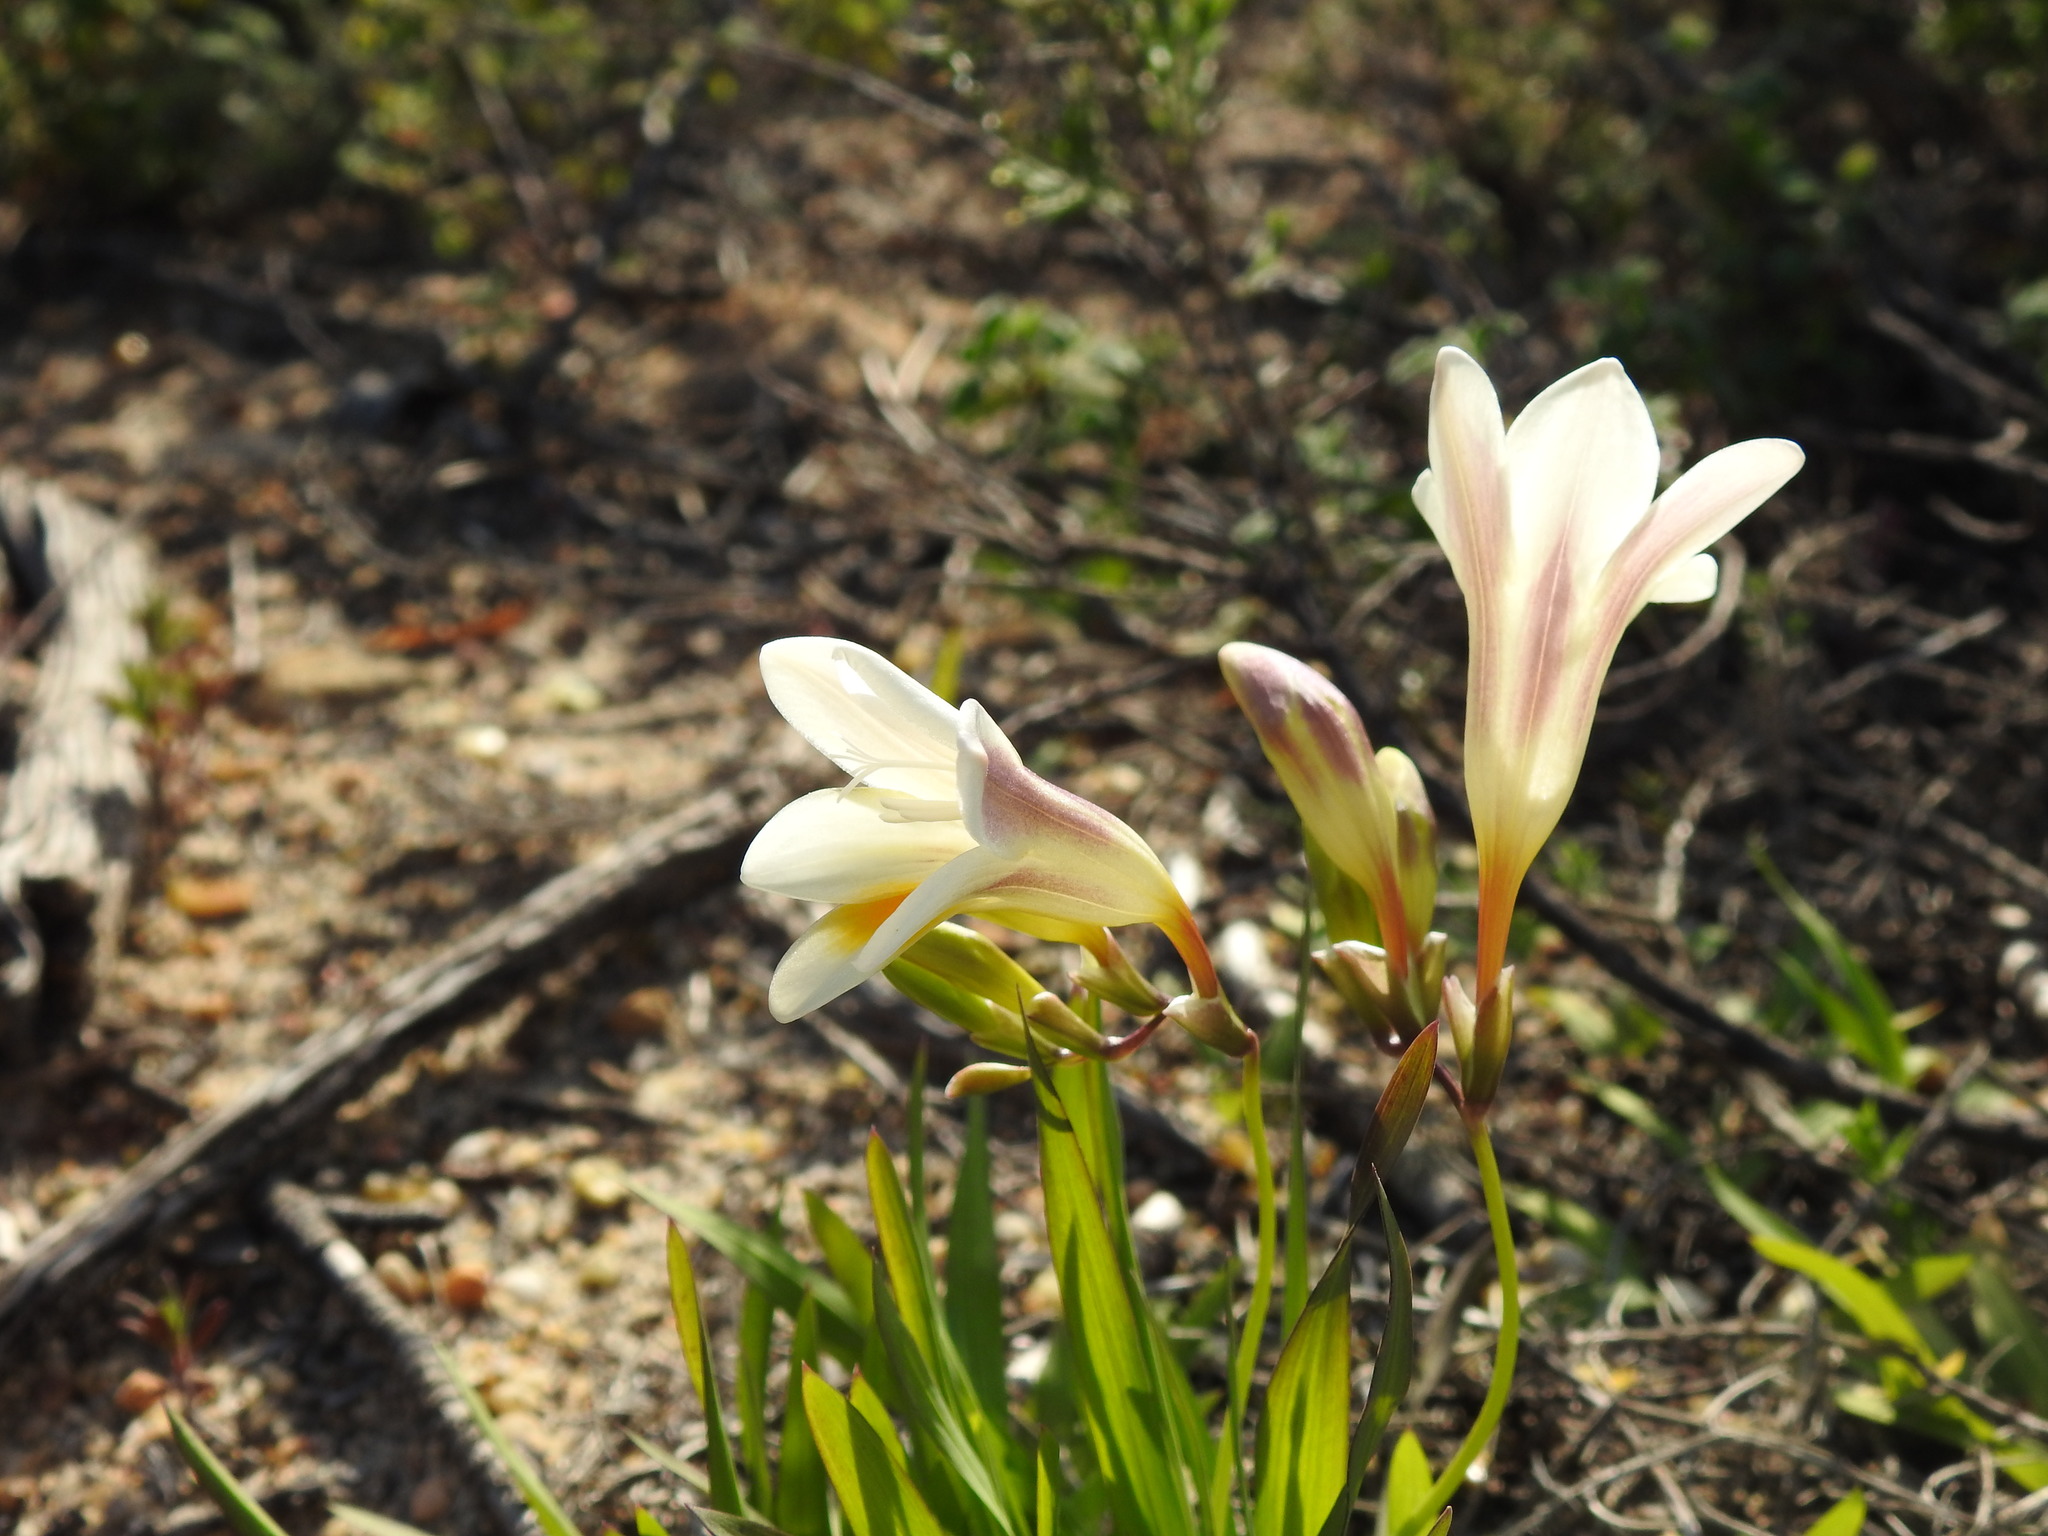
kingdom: Plantae
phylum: Tracheophyta
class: Liliopsida
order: Asparagales
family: Iridaceae
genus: Freesia
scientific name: Freesia leichtlinii
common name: Freesia
